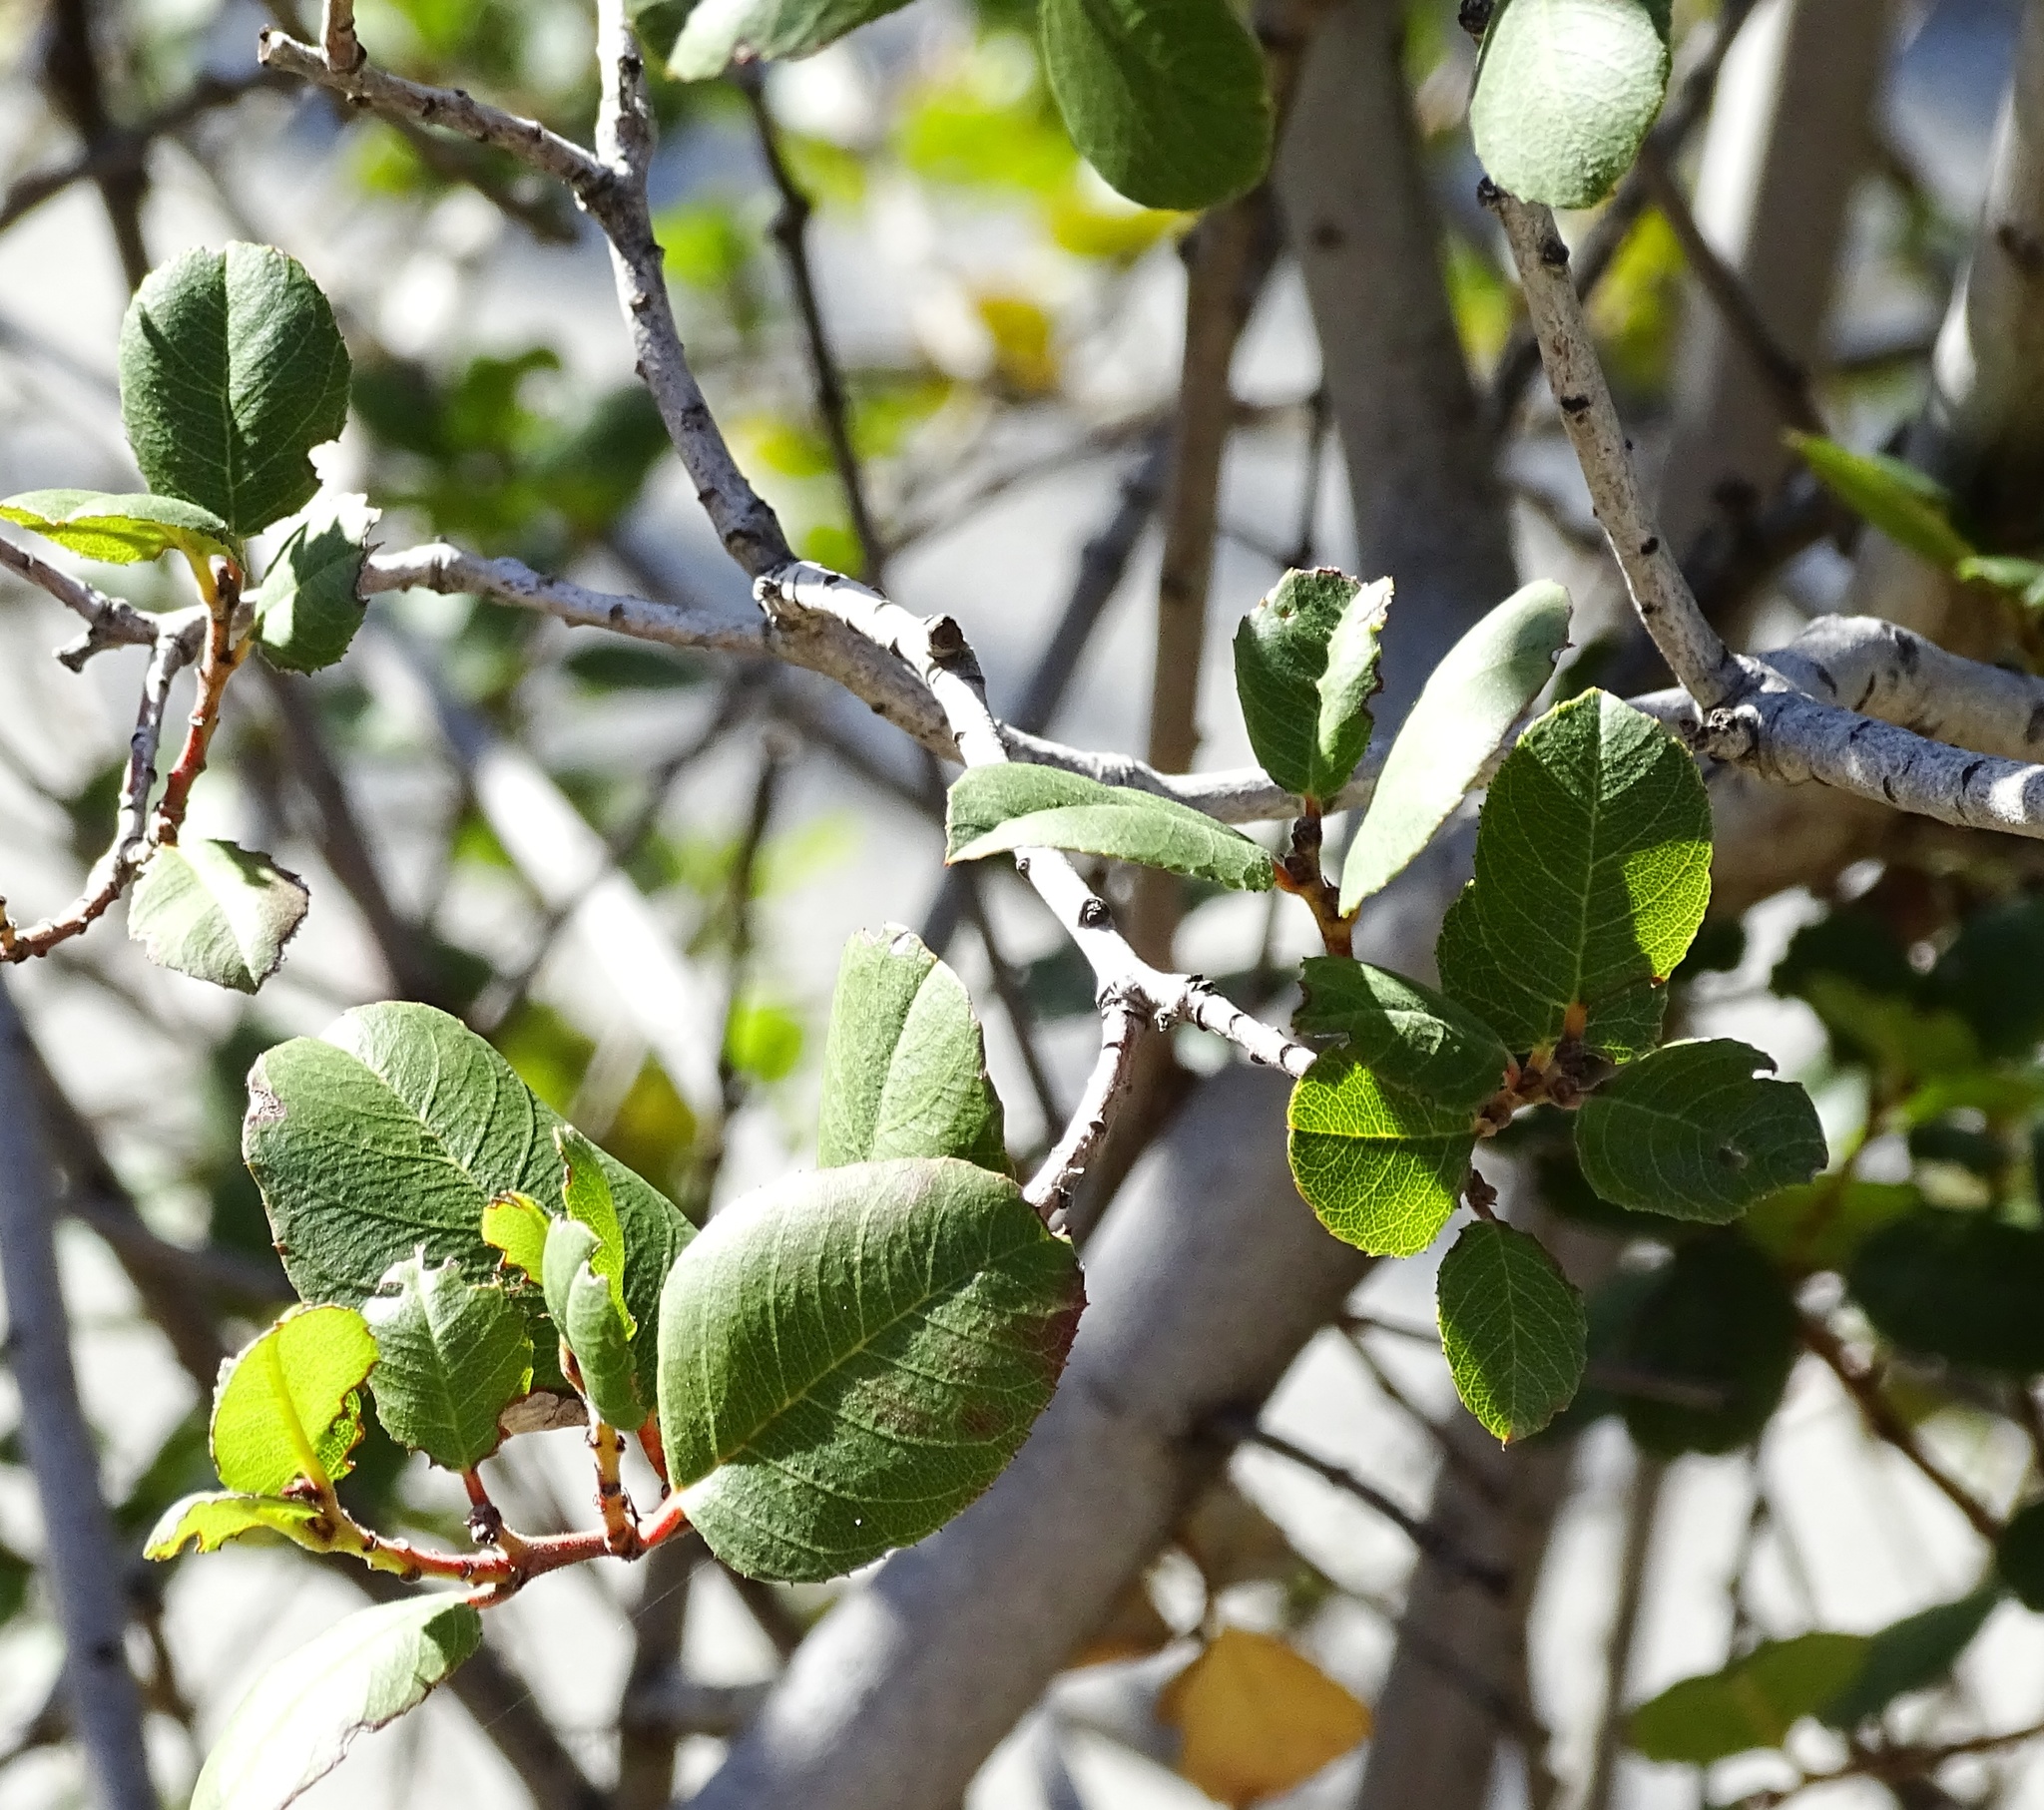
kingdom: Plantae
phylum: Tracheophyta
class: Magnoliopsida
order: Rosales
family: Rhamnaceae
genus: Endotropis
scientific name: Endotropis crocea
